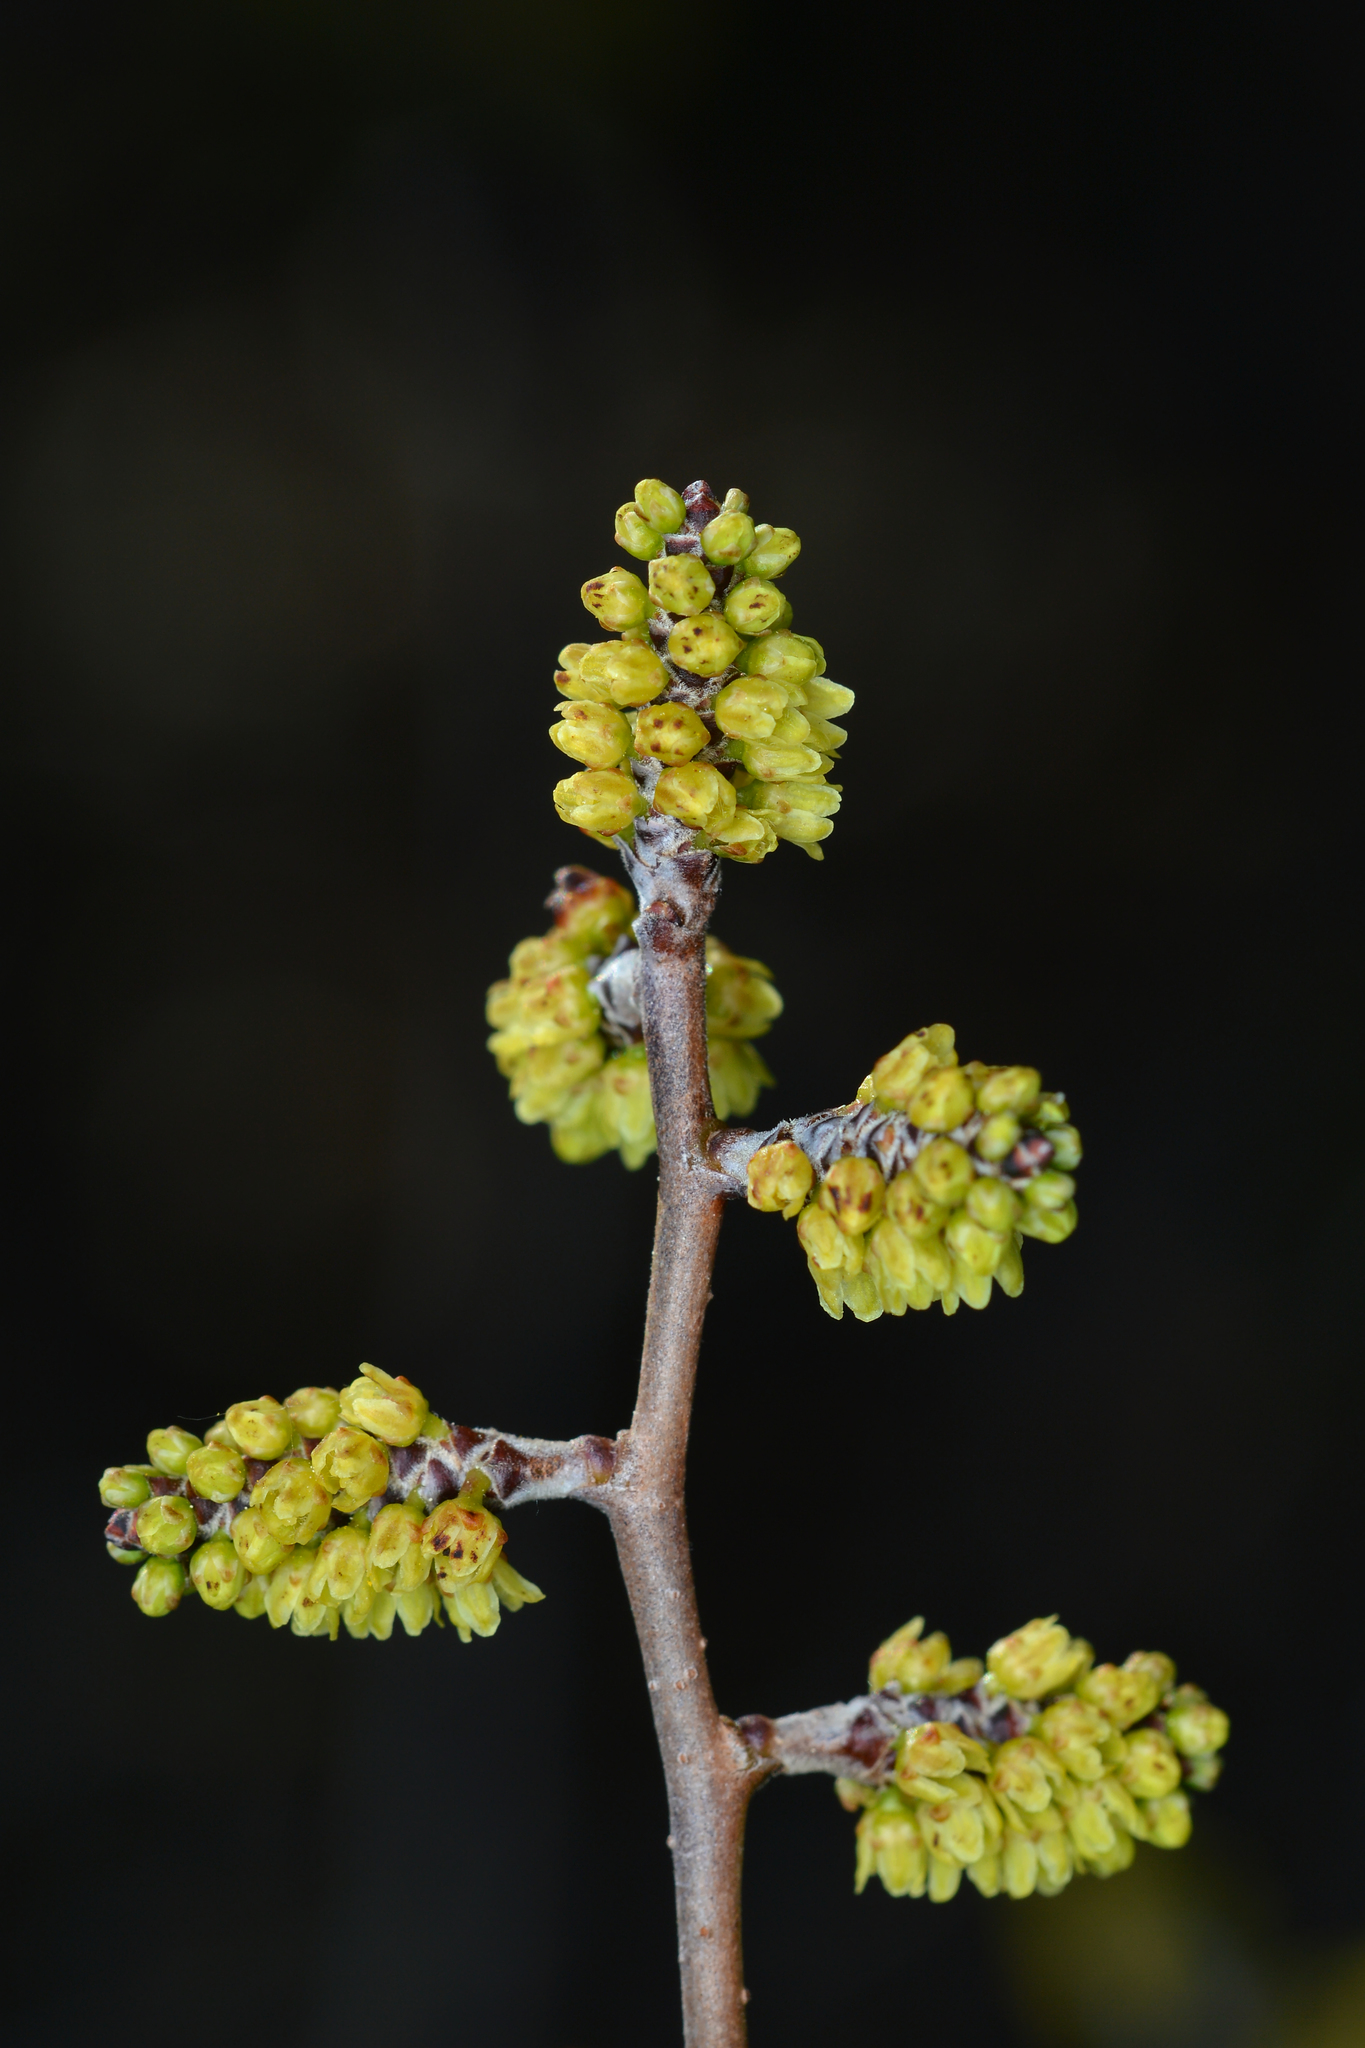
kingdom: Plantae
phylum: Tracheophyta
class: Magnoliopsida
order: Sapindales
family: Anacardiaceae
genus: Rhus
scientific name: Rhus aromatica
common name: Aromatic sumac
